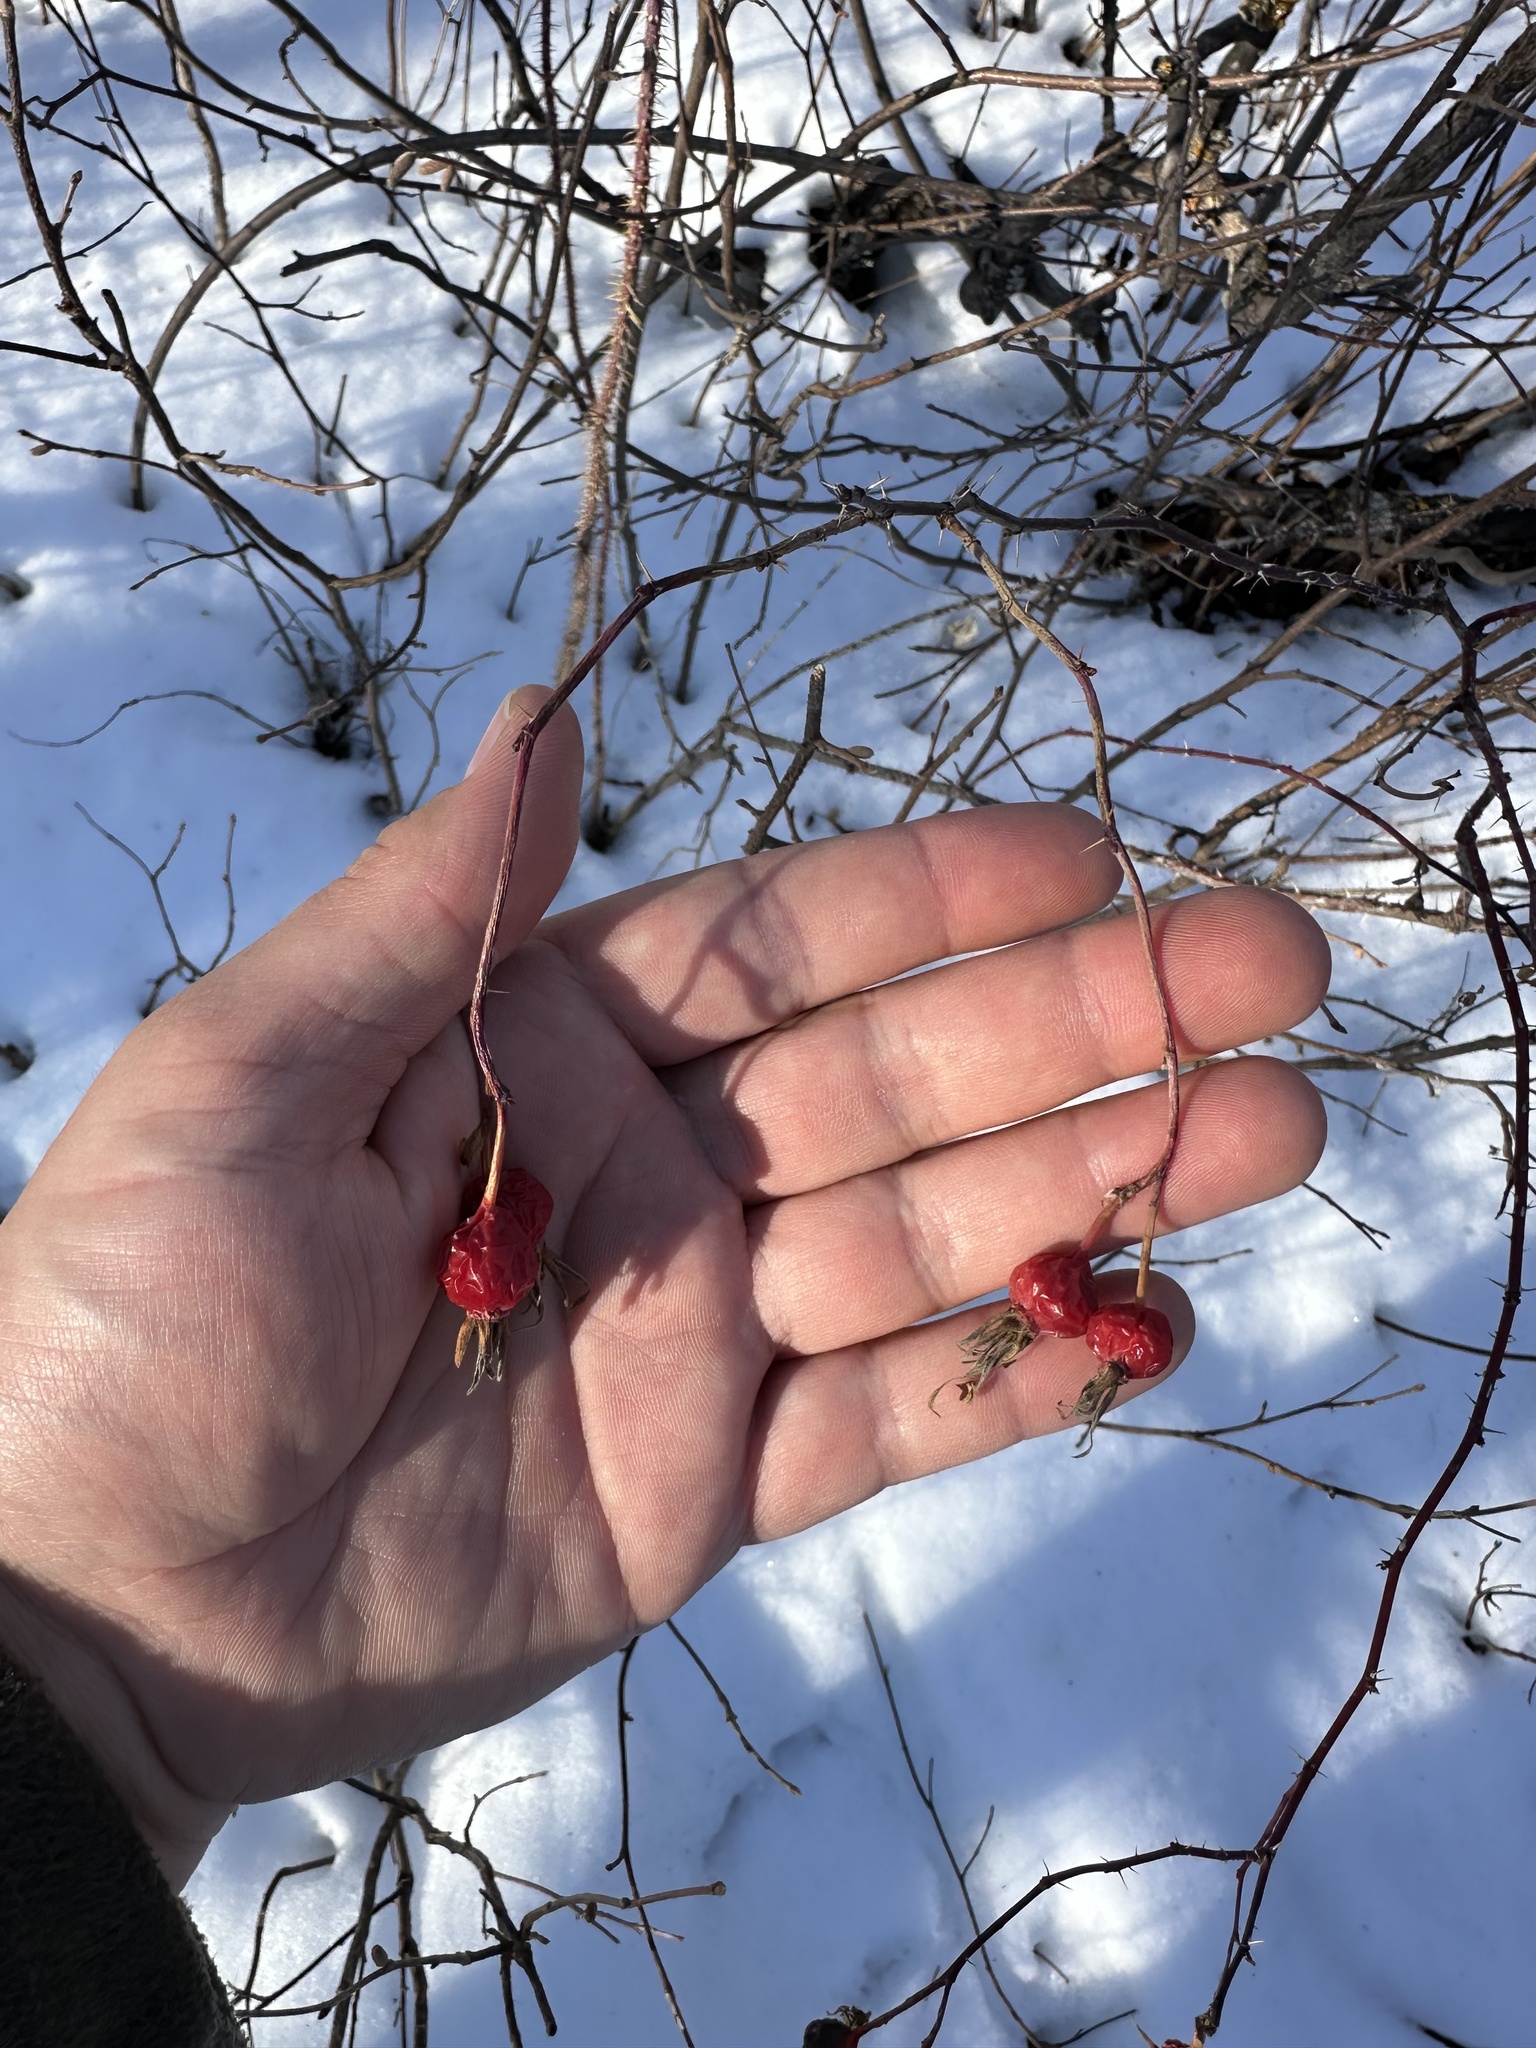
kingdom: Plantae
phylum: Tracheophyta
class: Magnoliopsida
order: Rosales
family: Rosaceae
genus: Rosa
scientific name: Rosa woodsii
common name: Woods's rose
